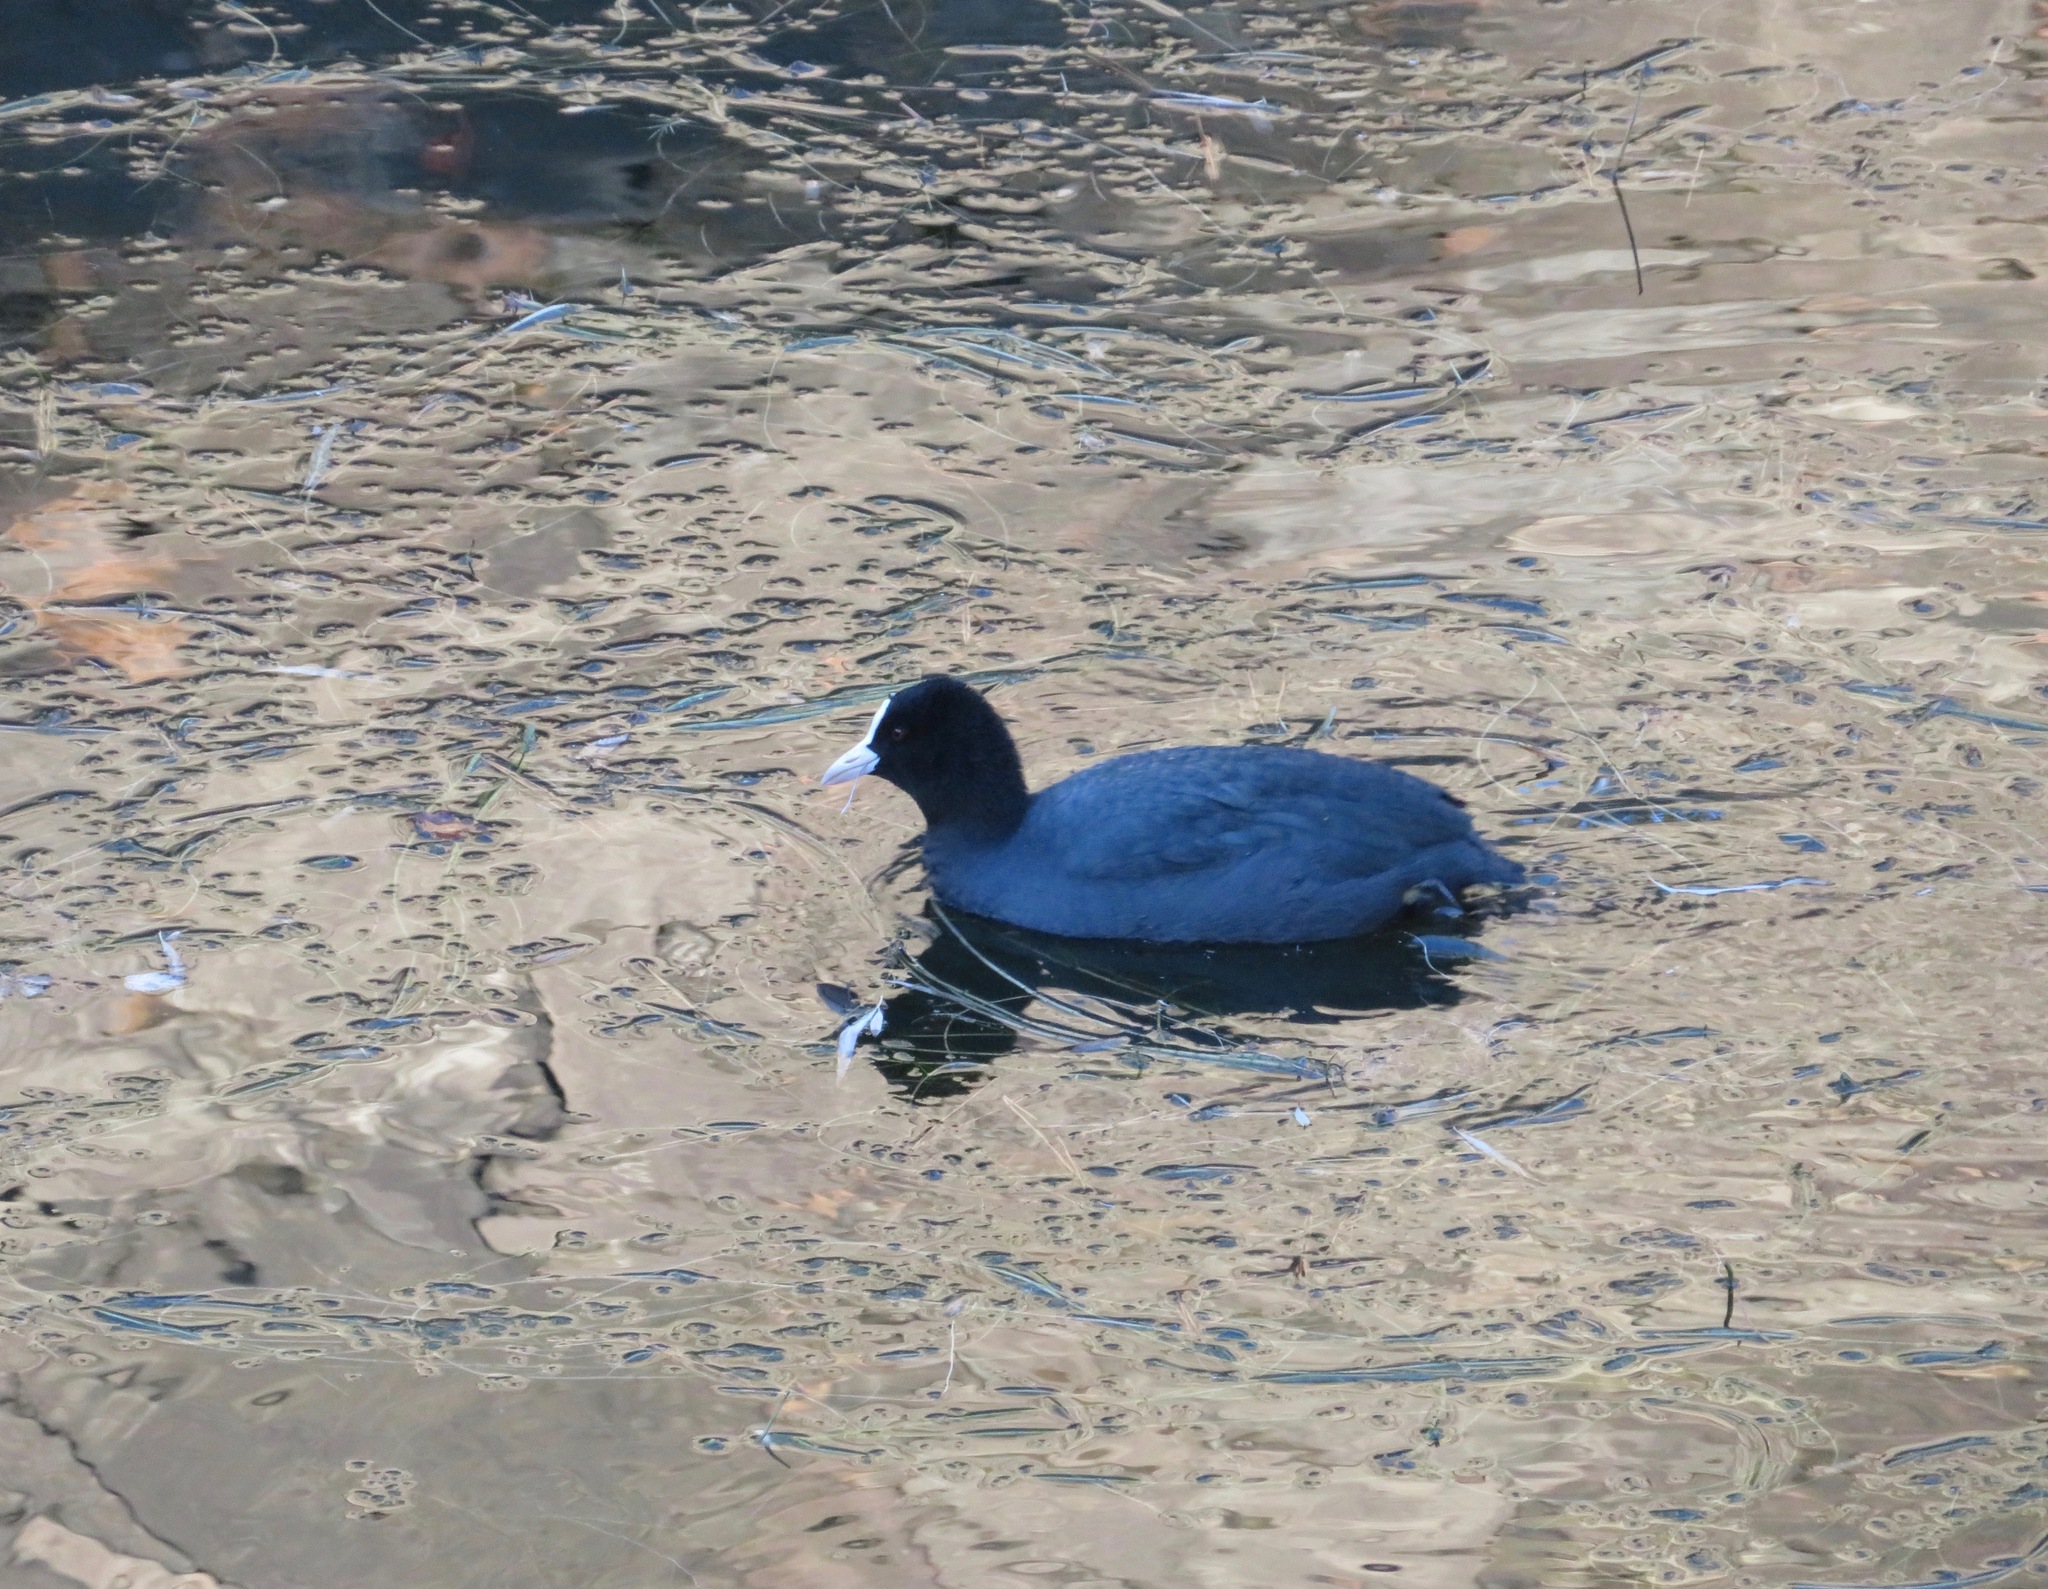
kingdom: Animalia
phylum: Chordata
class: Aves
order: Gruiformes
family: Rallidae
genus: Fulica
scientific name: Fulica atra
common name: Eurasian coot
